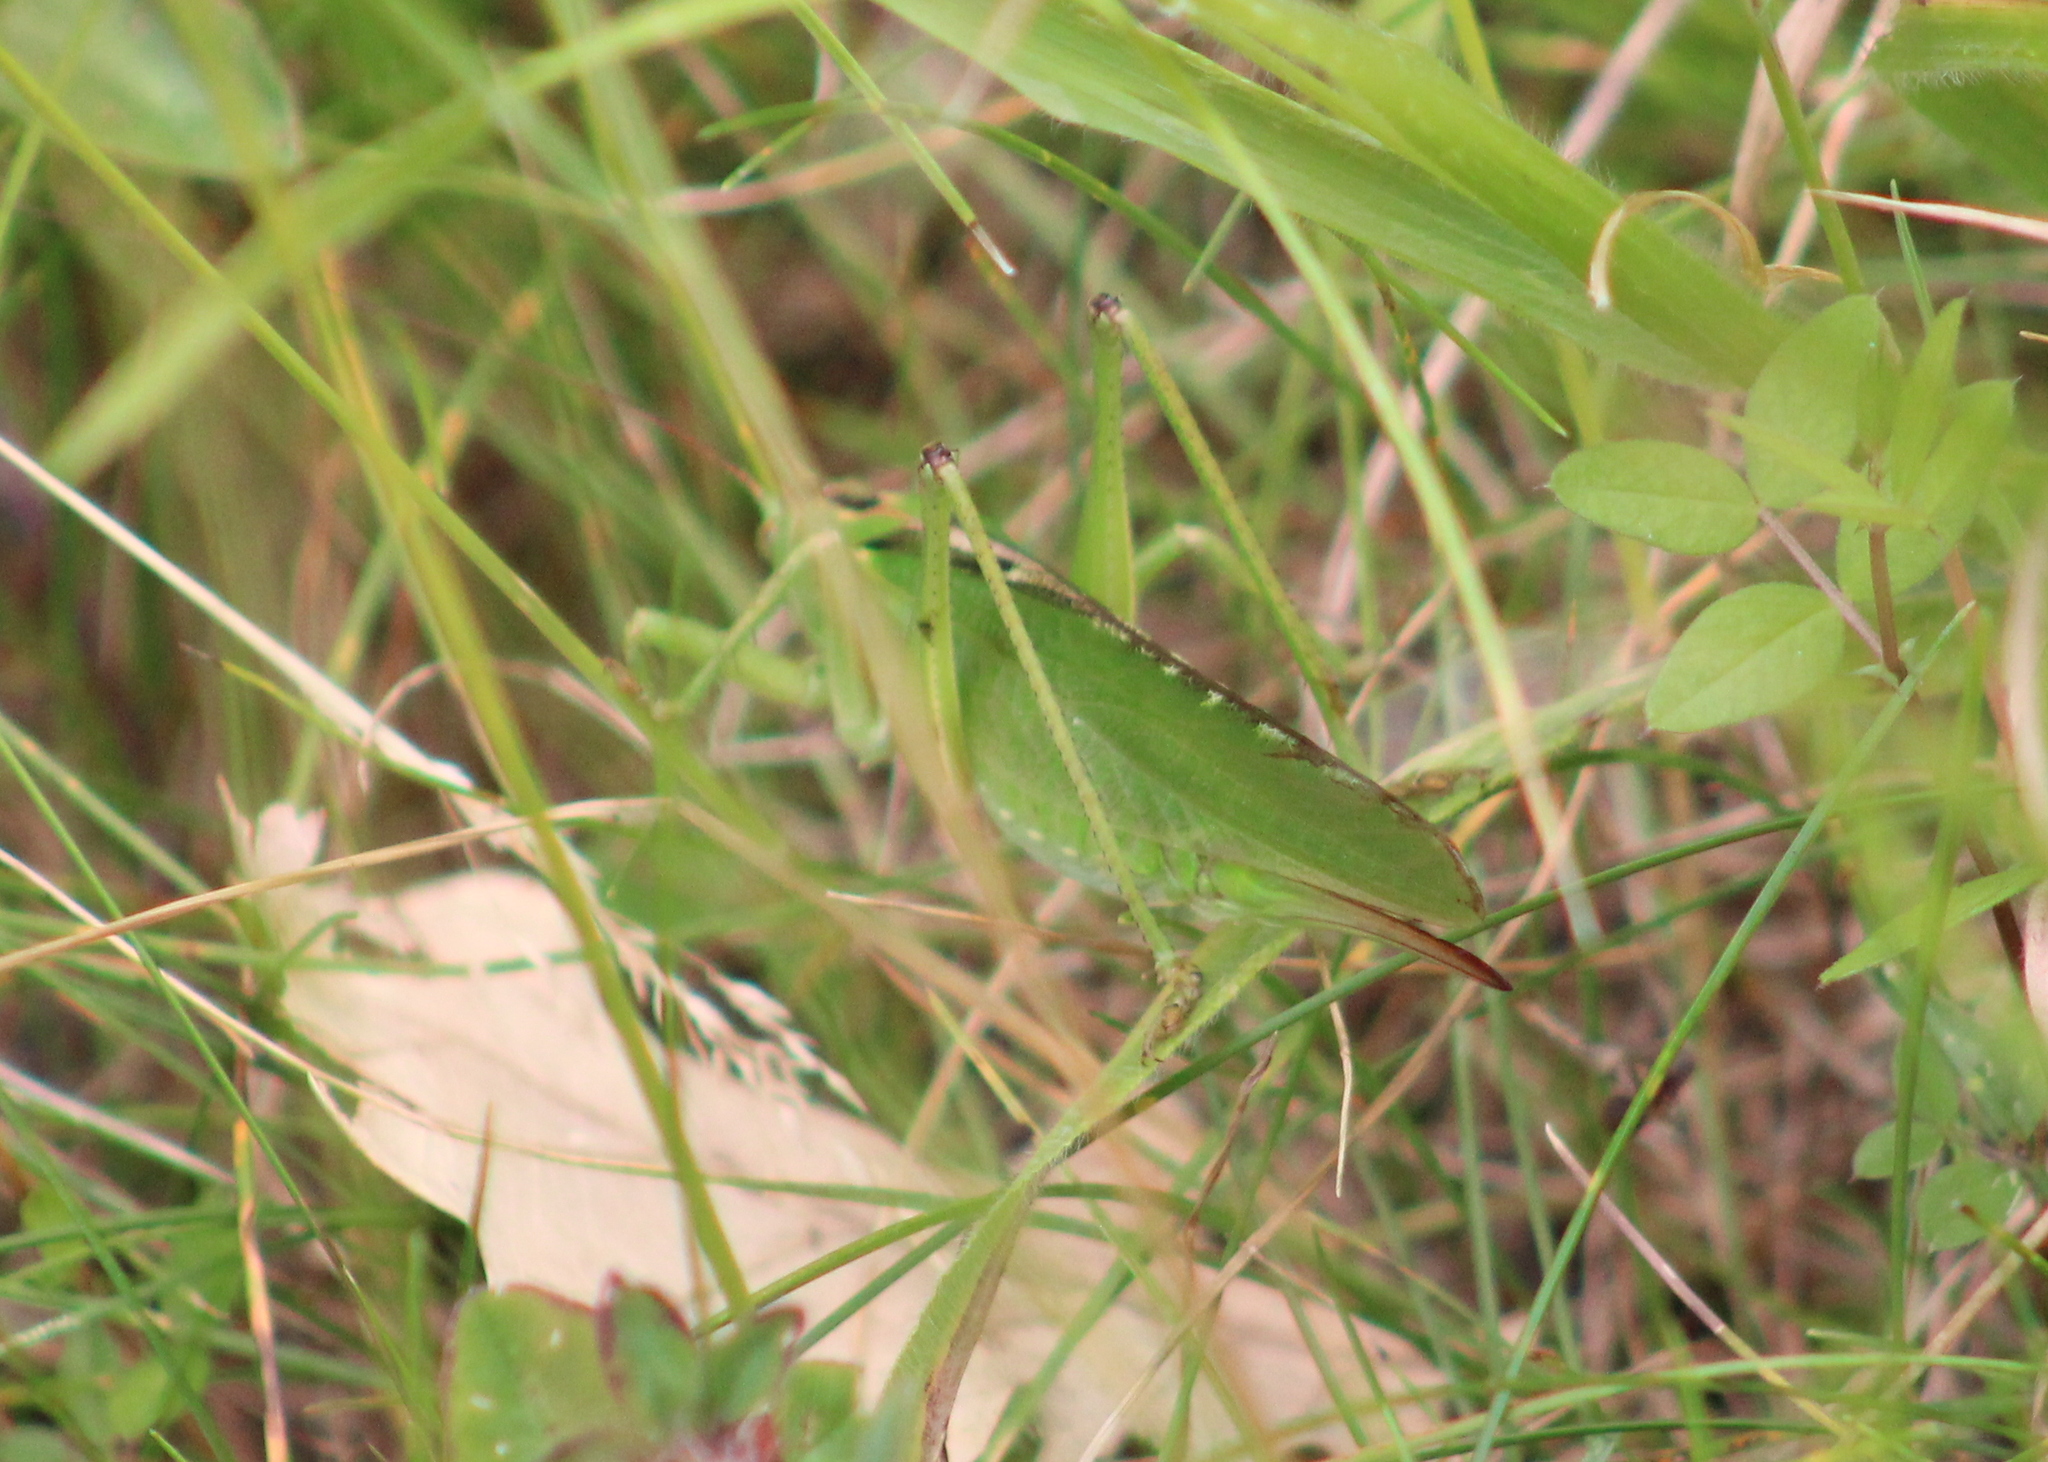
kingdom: Animalia
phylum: Arthropoda
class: Insecta
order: Orthoptera
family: Tettigoniidae
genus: Tettigonia
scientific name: Tettigonia viridissima
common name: Great green bush-cricket
